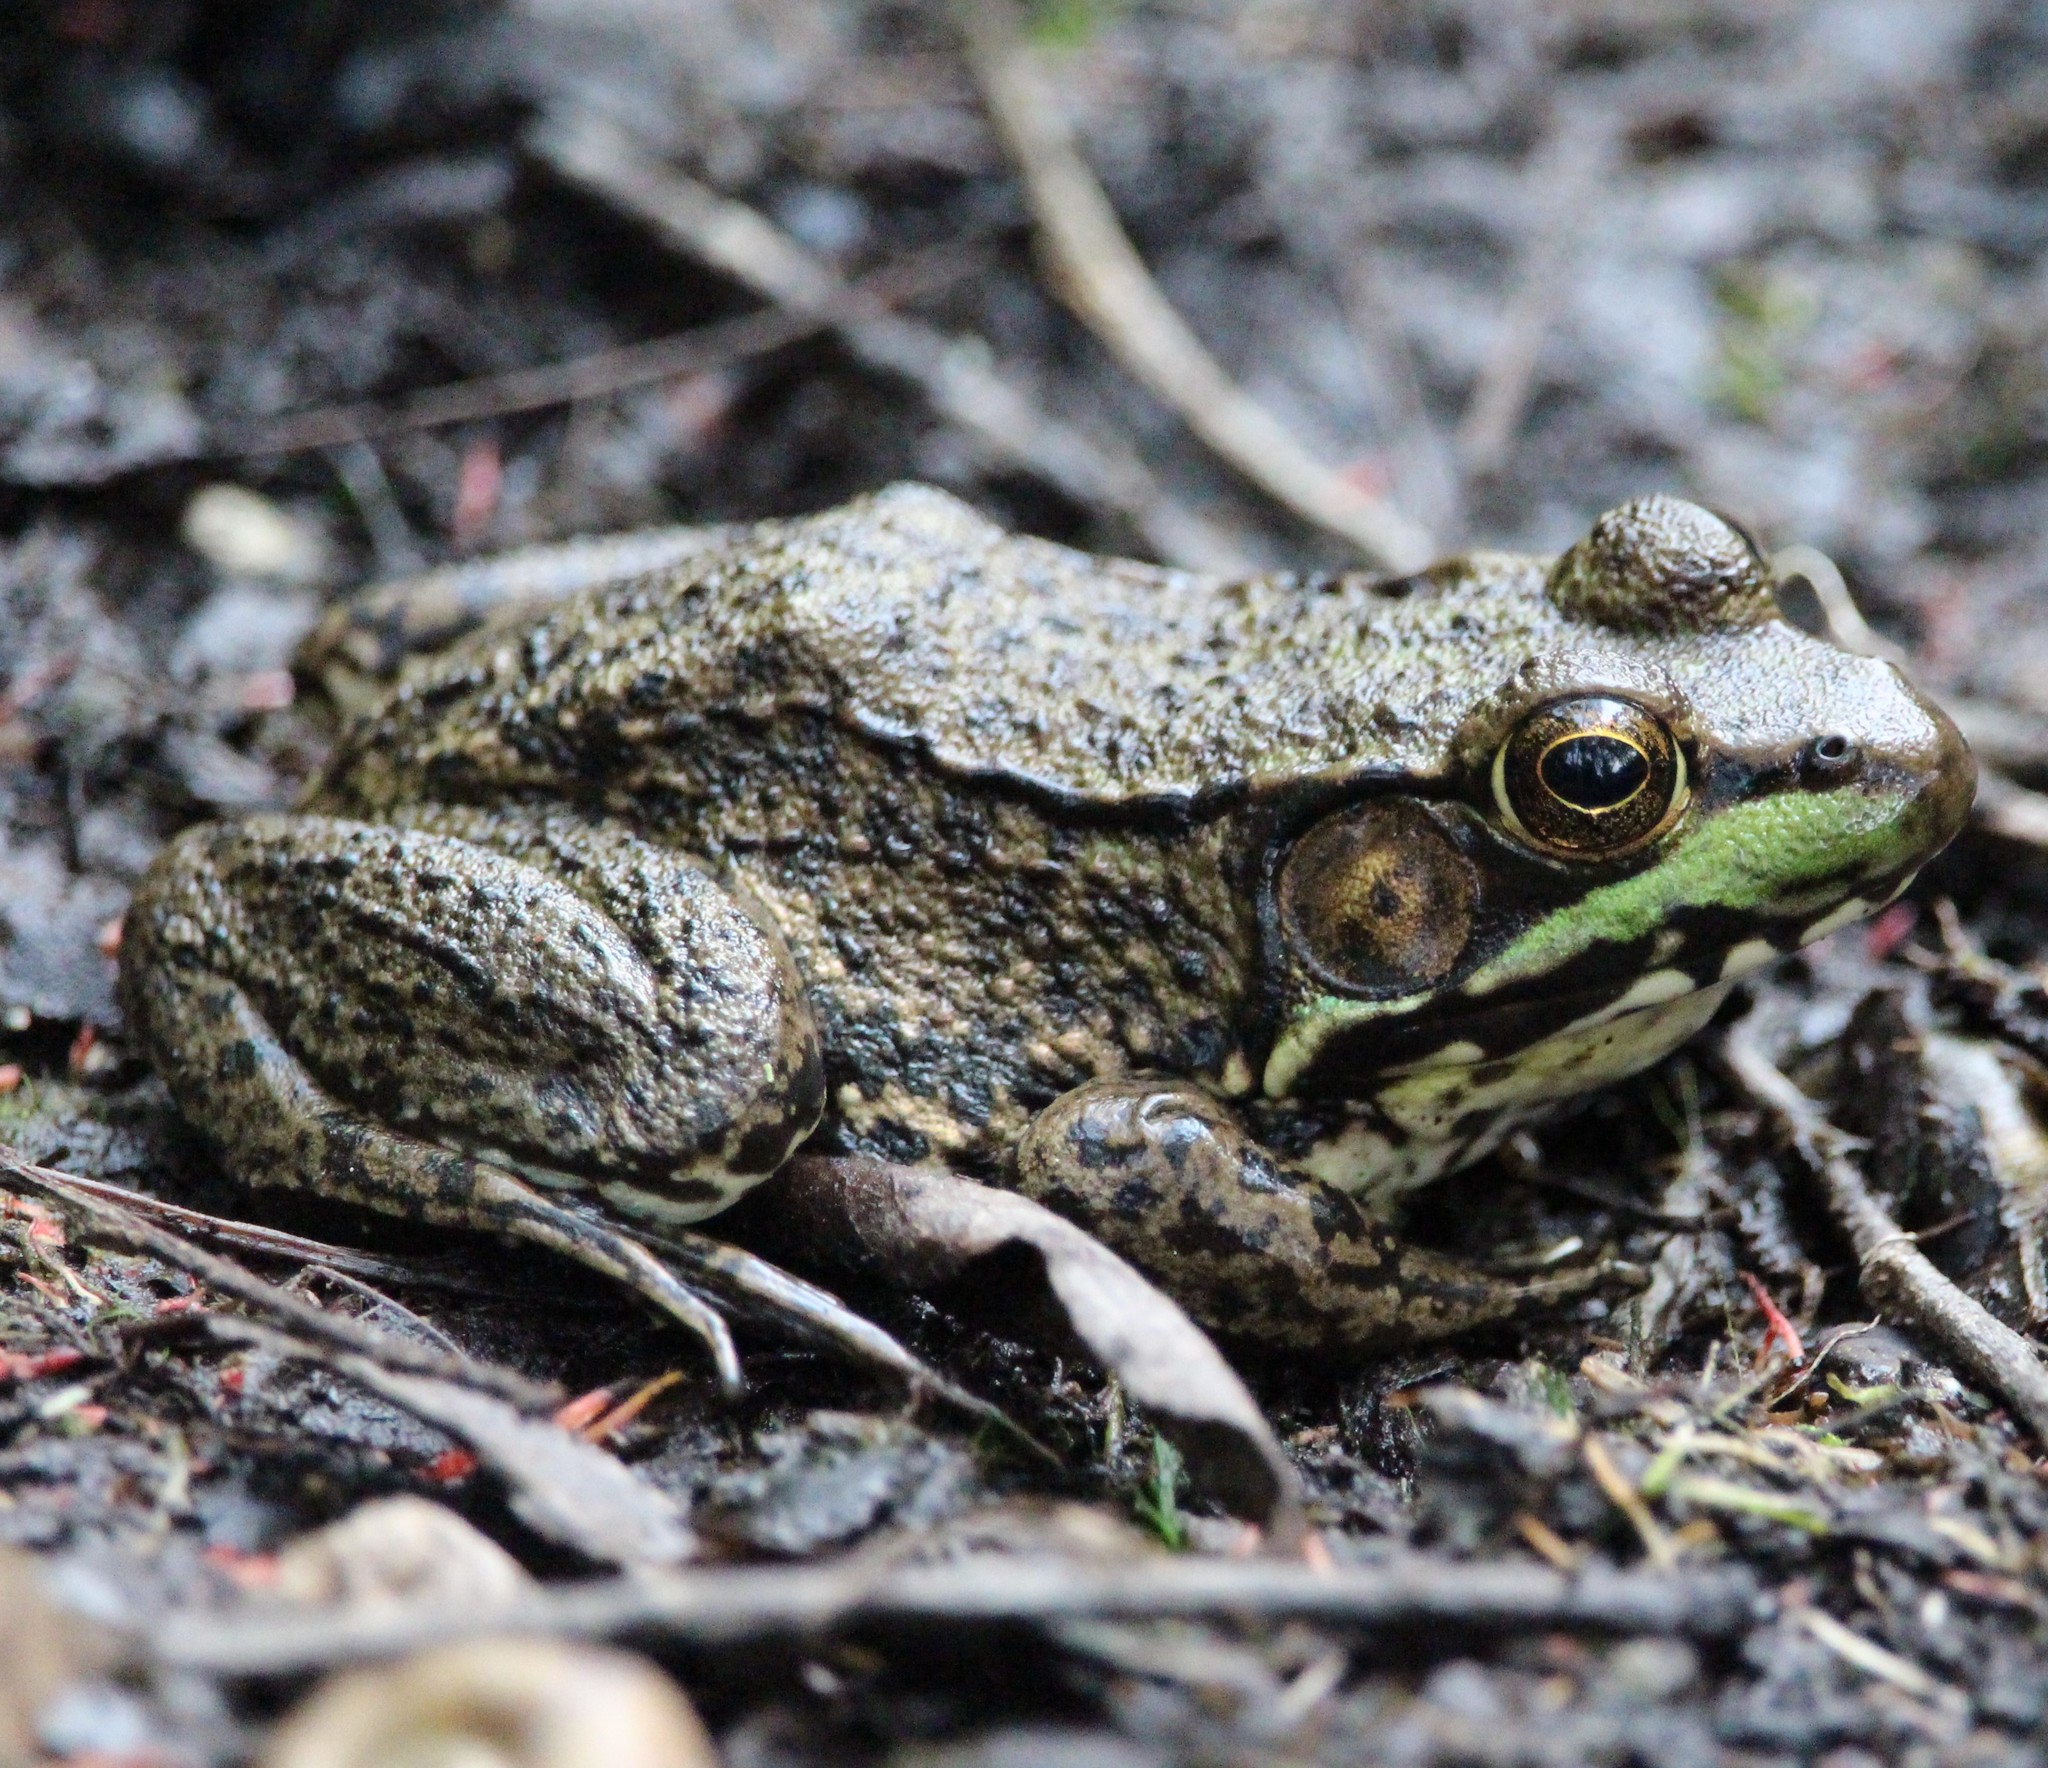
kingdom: Animalia
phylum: Chordata
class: Amphibia
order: Anura
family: Ranidae
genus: Lithobates
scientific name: Lithobates clamitans
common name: Green frog
